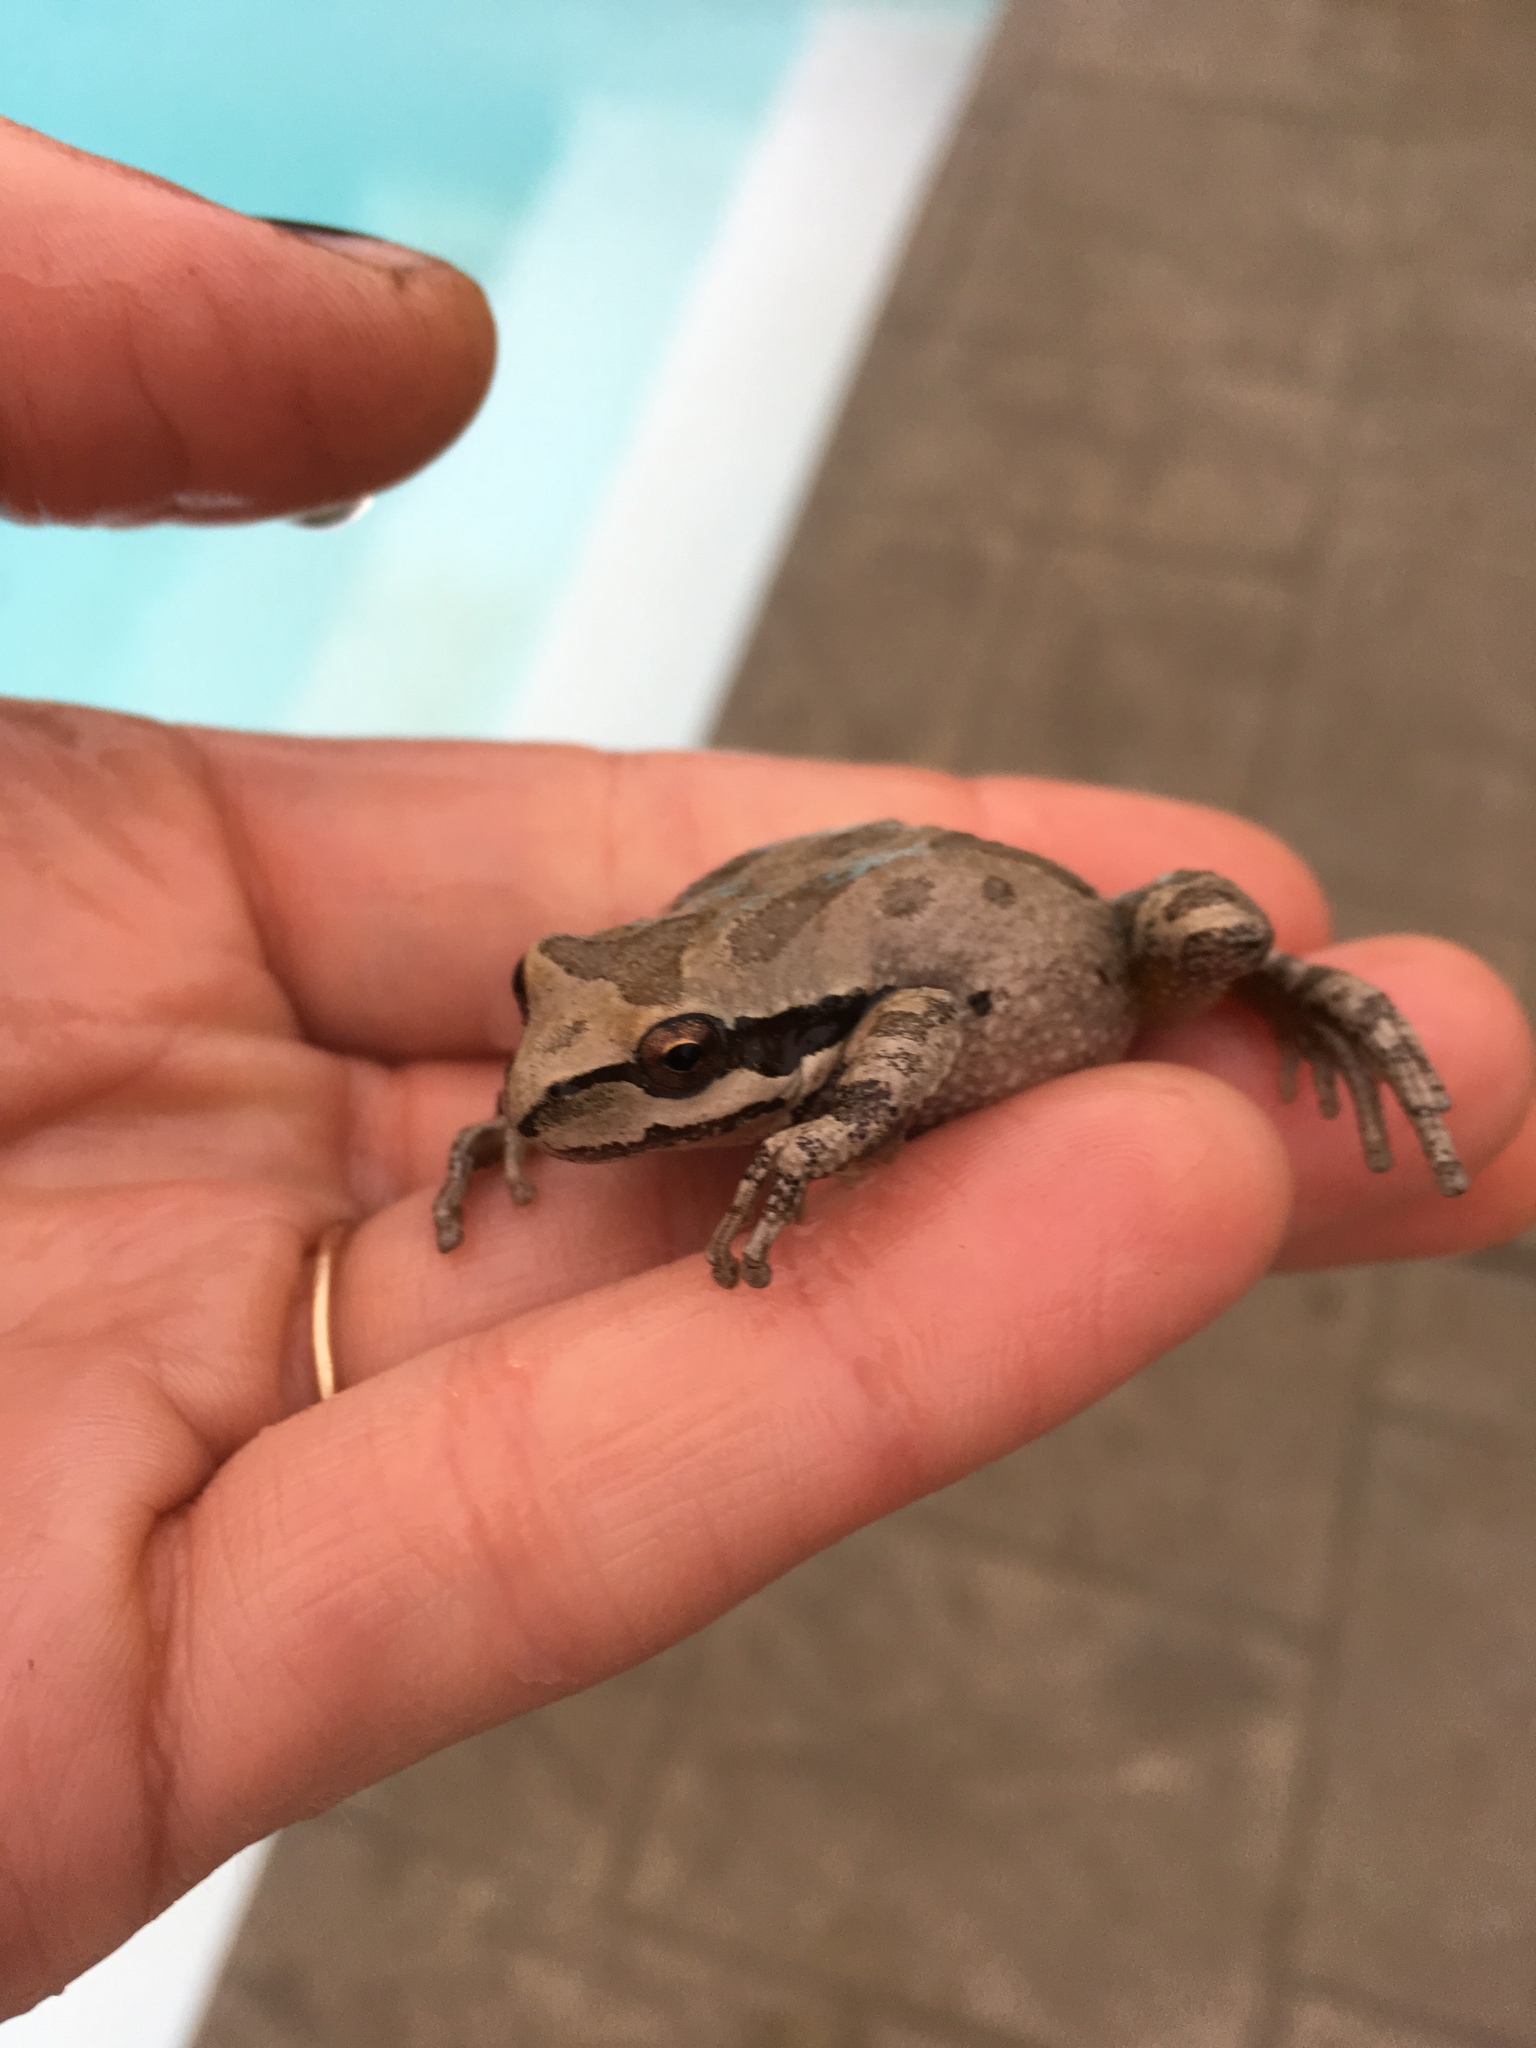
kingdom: Animalia
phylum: Chordata
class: Amphibia
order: Anura
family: Hylidae
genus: Pseudacris
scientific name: Pseudacris regilla
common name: Pacific chorus frog
